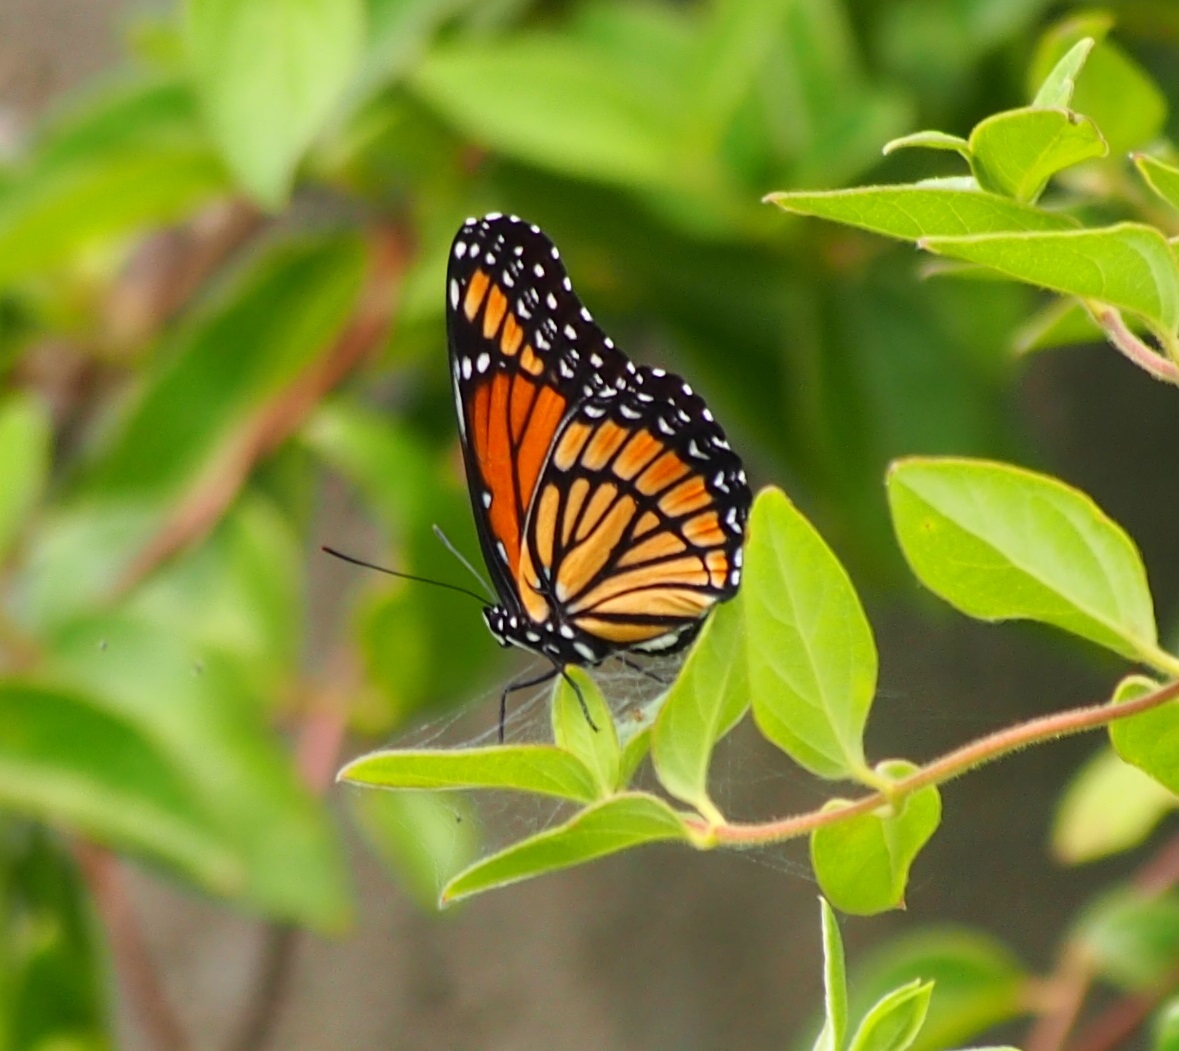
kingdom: Animalia
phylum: Arthropoda
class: Insecta
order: Lepidoptera
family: Nymphalidae
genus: Limenitis
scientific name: Limenitis archippus
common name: Viceroy
